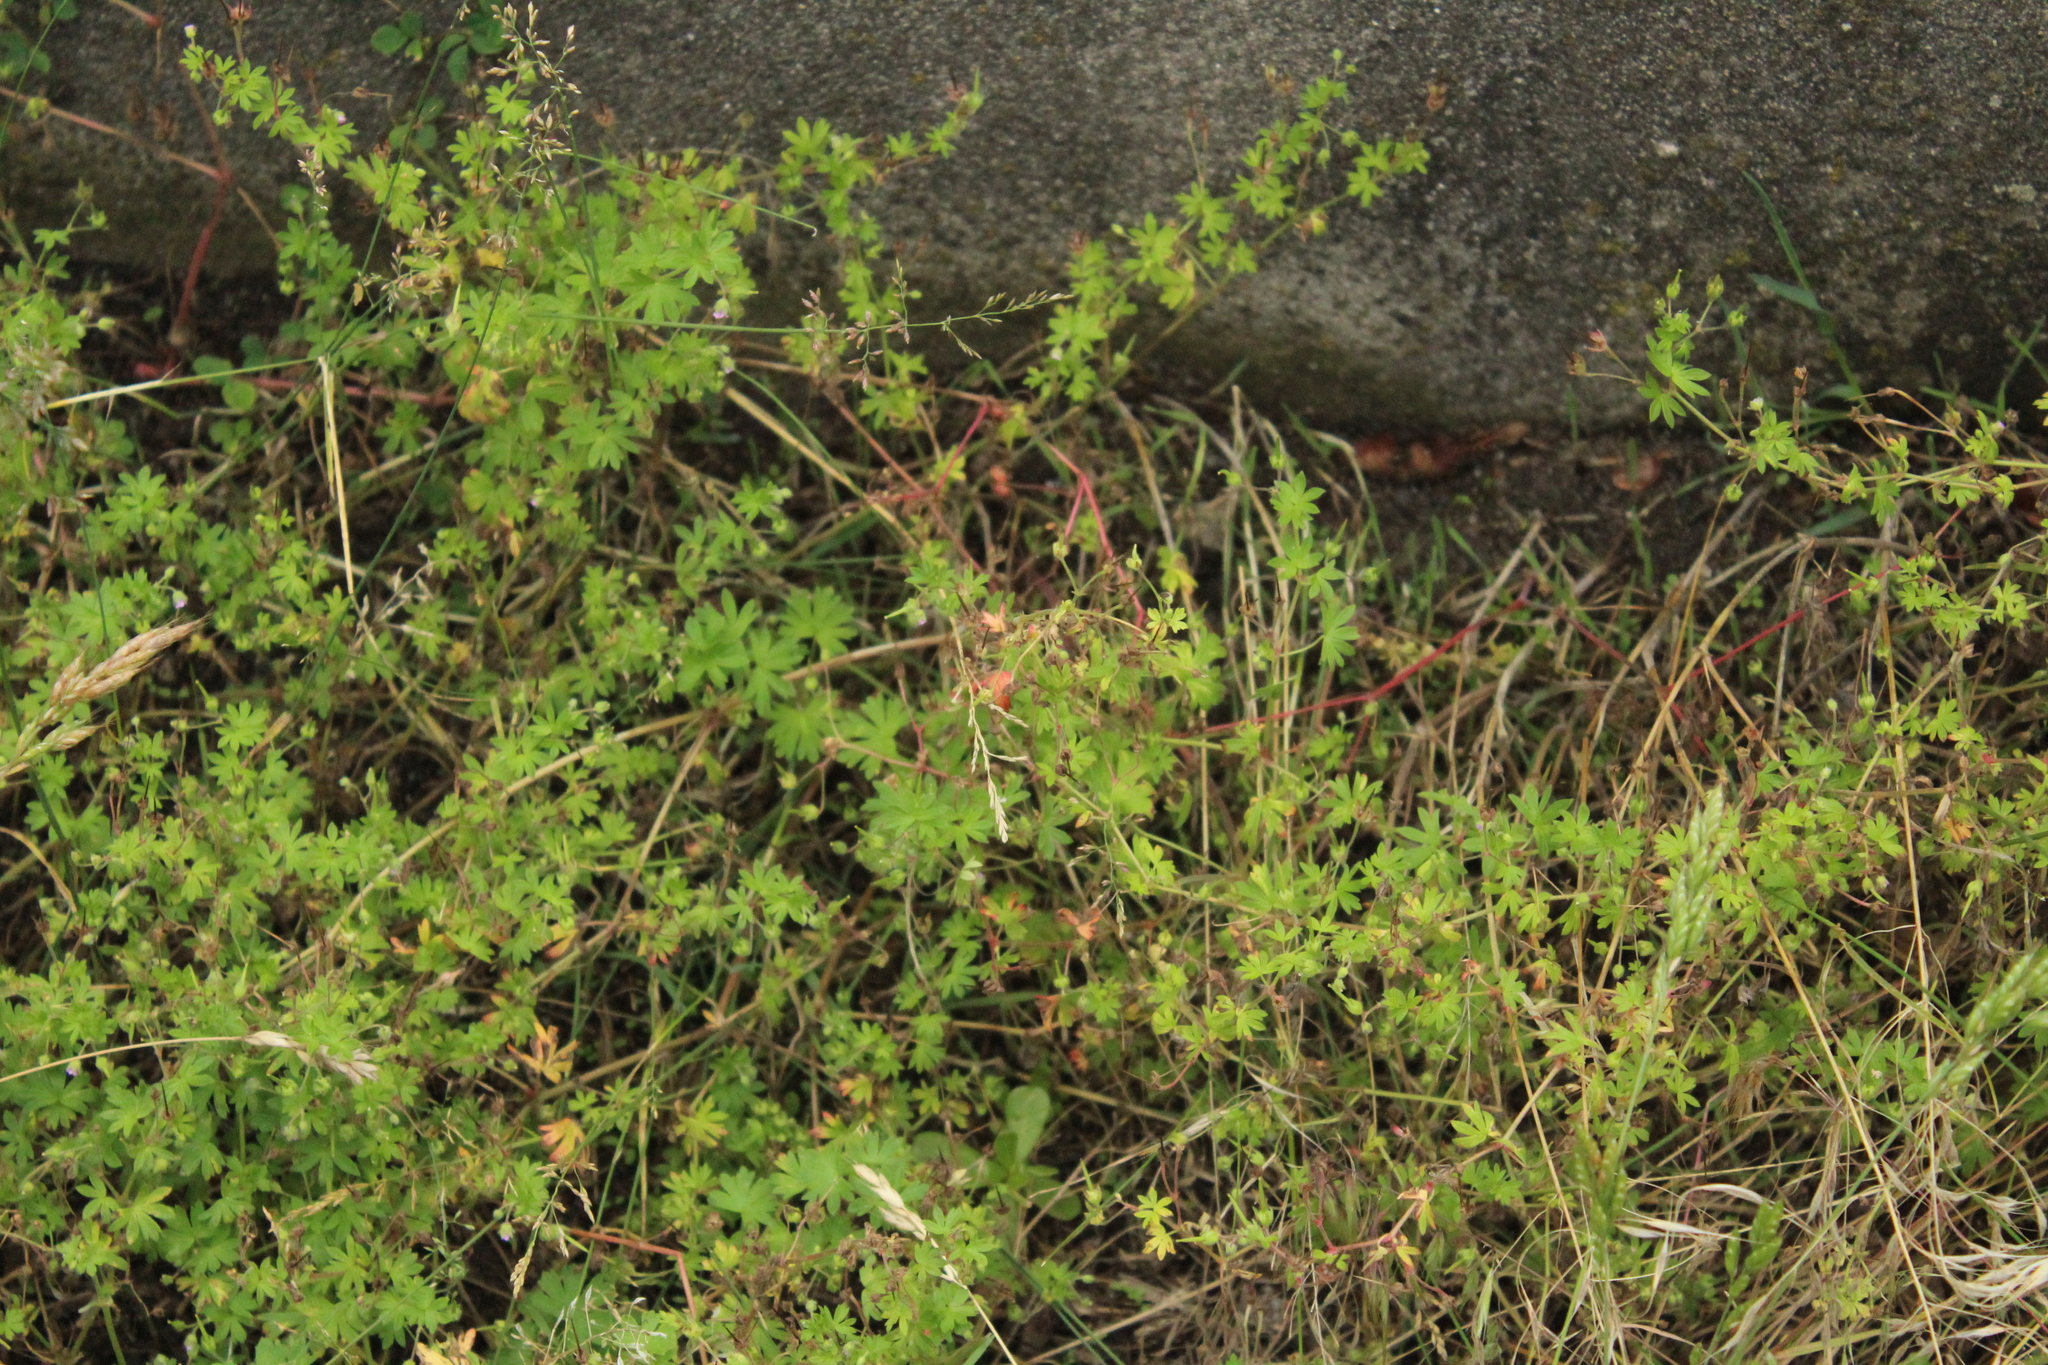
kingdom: Plantae
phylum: Tracheophyta
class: Magnoliopsida
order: Geraniales
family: Geraniaceae
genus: Geranium
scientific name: Geranium pusillum
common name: Small geranium
